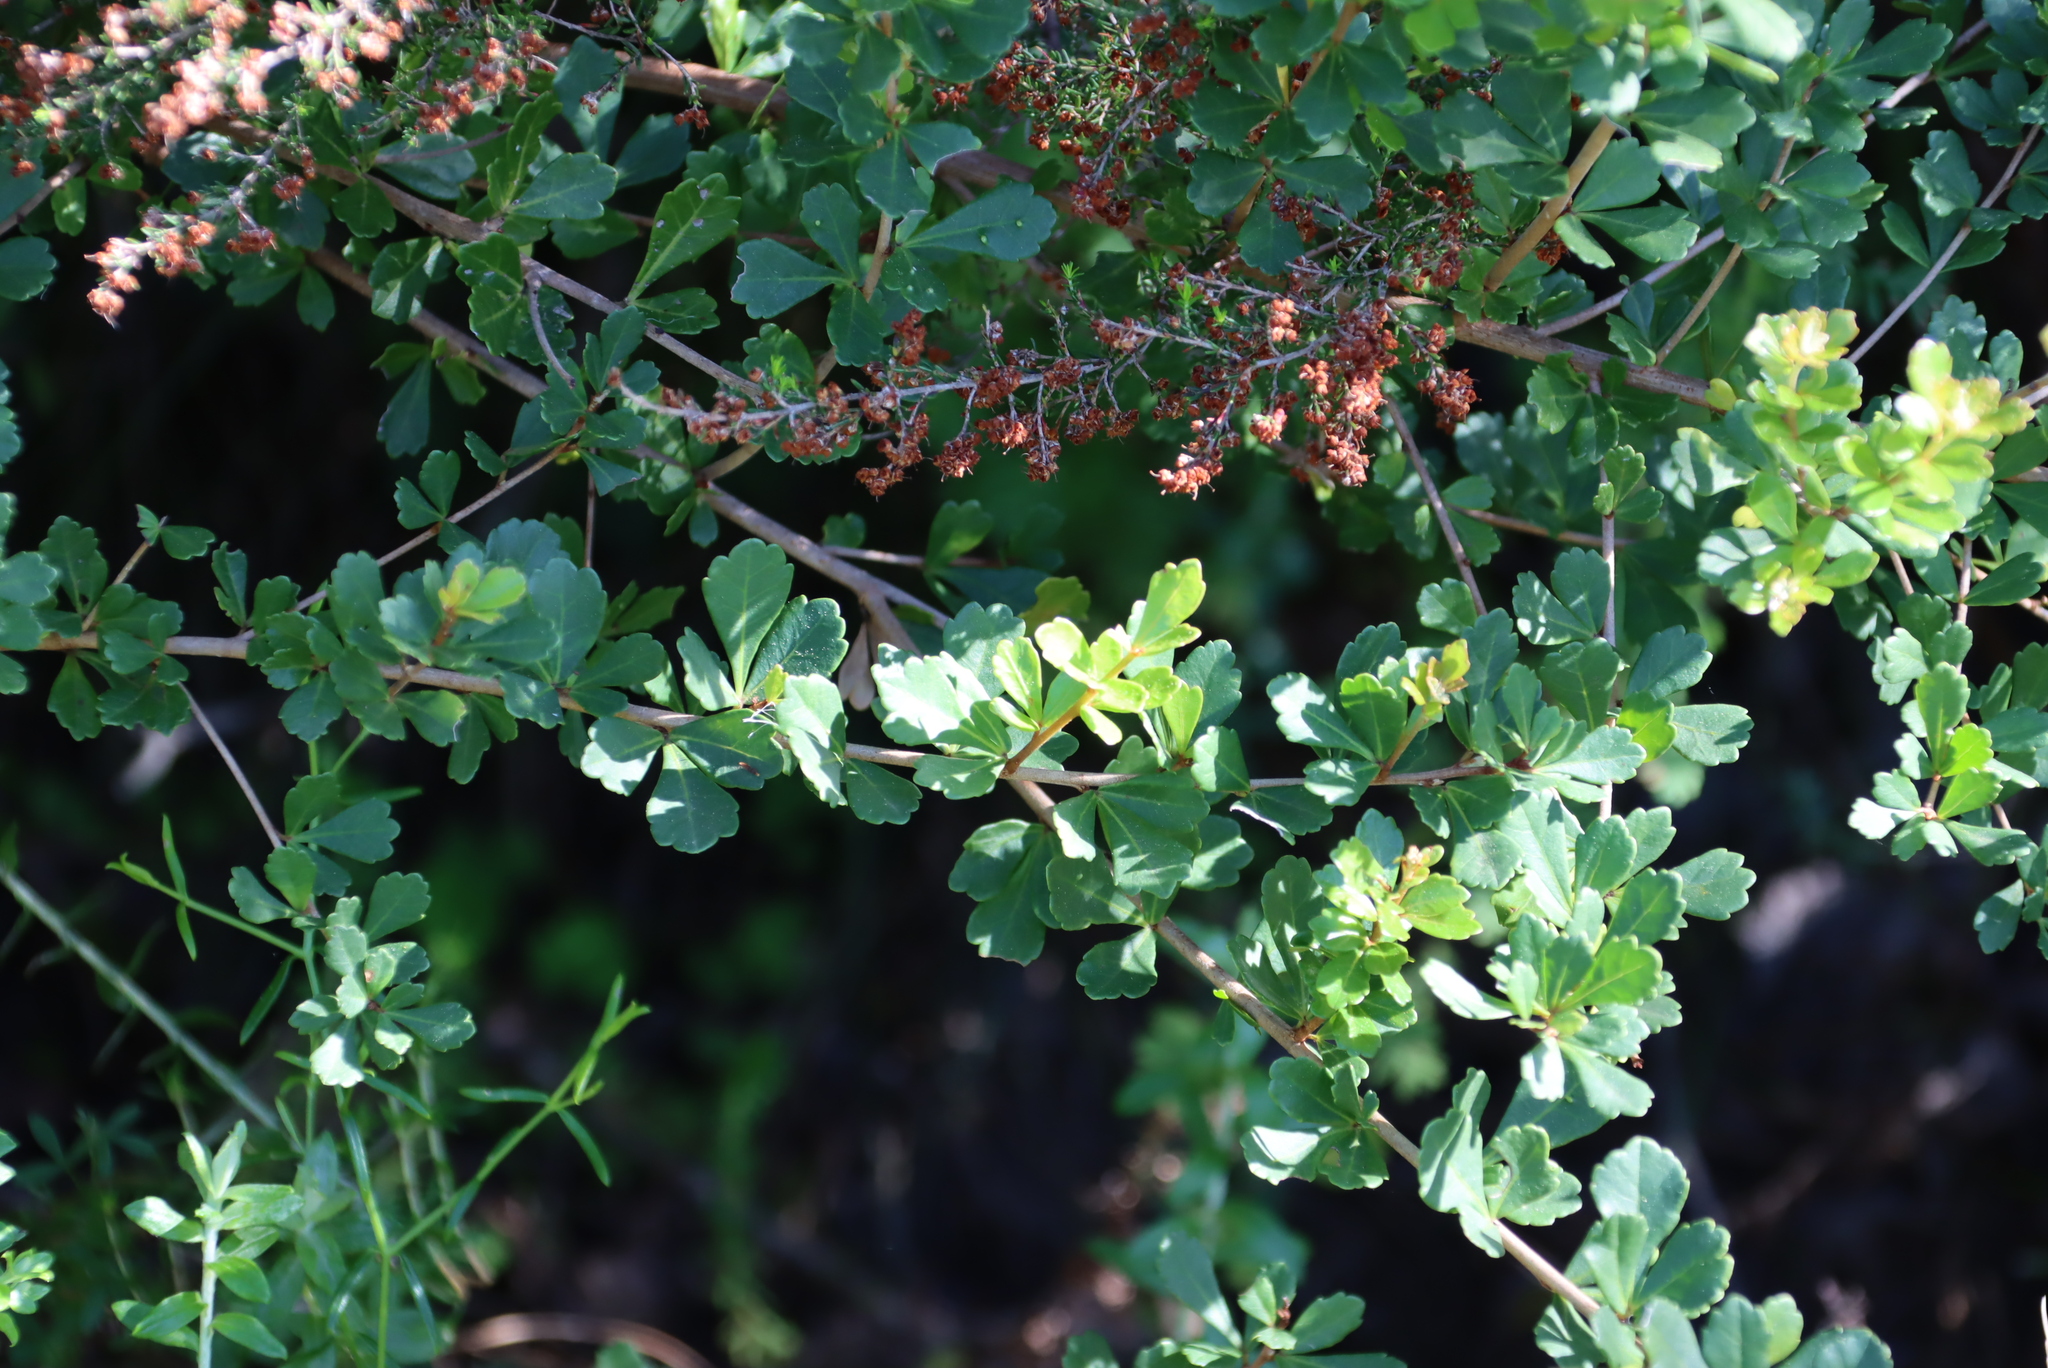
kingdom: Plantae
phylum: Tracheophyta
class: Magnoliopsida
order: Sapindales
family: Anacardiaceae
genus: Searsia
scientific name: Searsia crenata
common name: Crowberry
